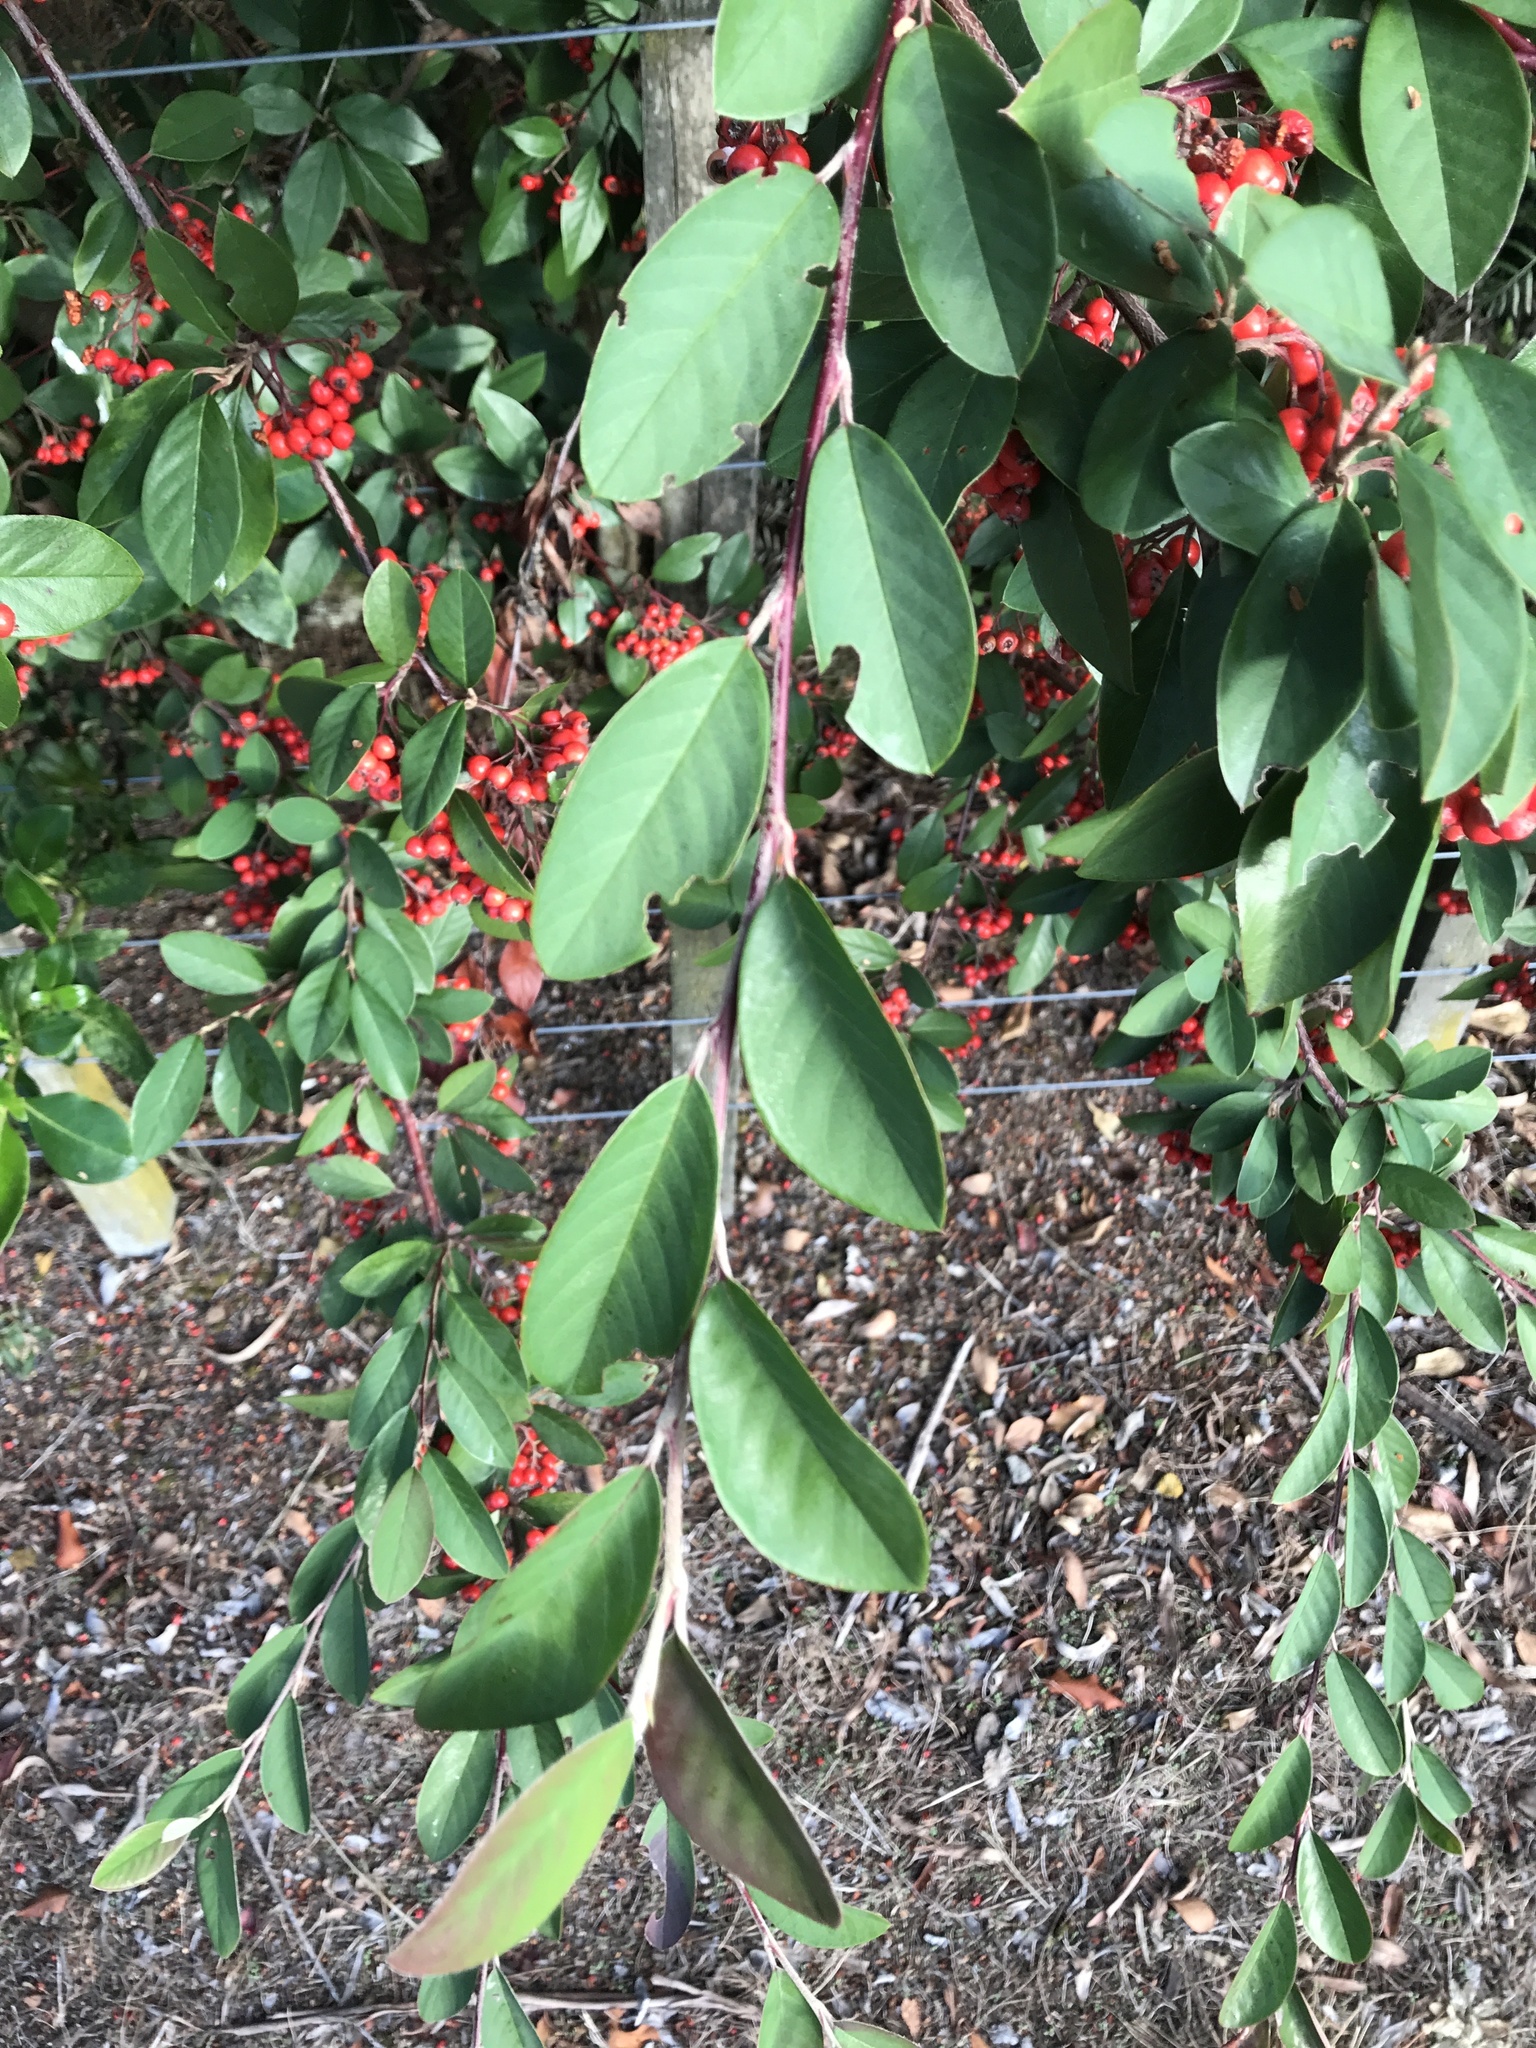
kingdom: Plantae
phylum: Tracheophyta
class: Magnoliopsida
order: Rosales
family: Rosaceae
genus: Cotoneaster
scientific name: Cotoneaster glaucophyllus
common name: Glaucous cotoneaster
